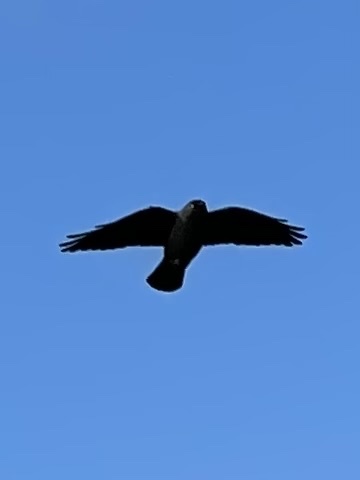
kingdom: Animalia
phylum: Chordata
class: Aves
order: Passeriformes
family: Corvidae
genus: Coloeus
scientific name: Coloeus monedula
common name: Western jackdaw
